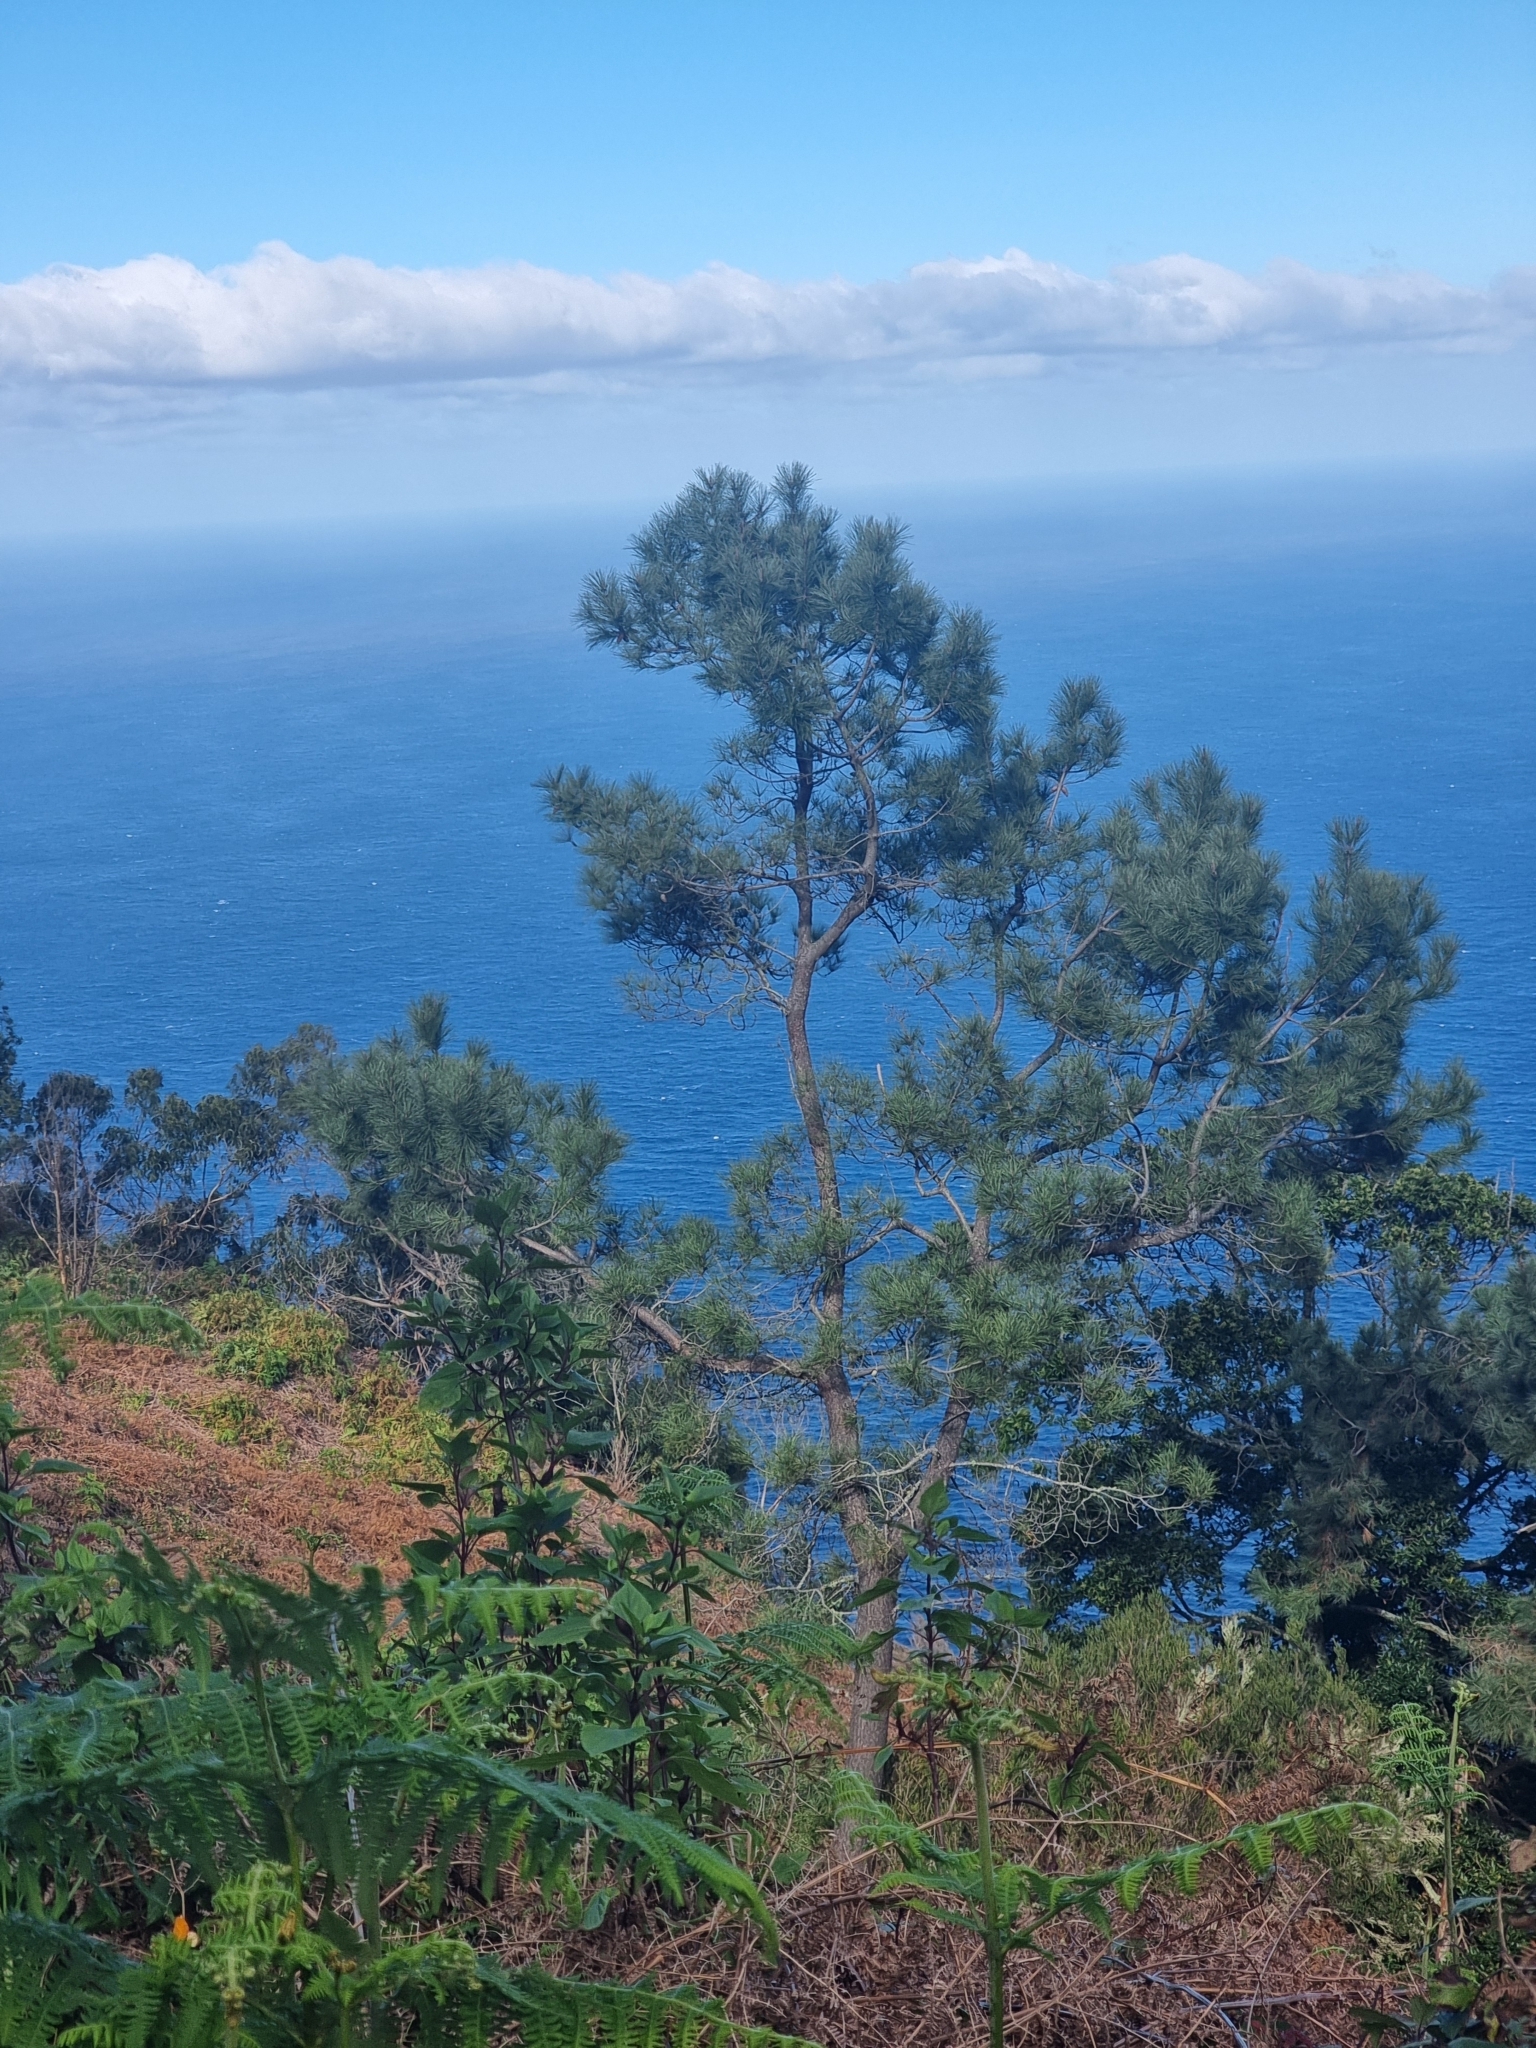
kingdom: Plantae
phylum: Tracheophyta
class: Pinopsida
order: Pinales
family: Pinaceae
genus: Pinus
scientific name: Pinus pinaster
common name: Maritime pine
